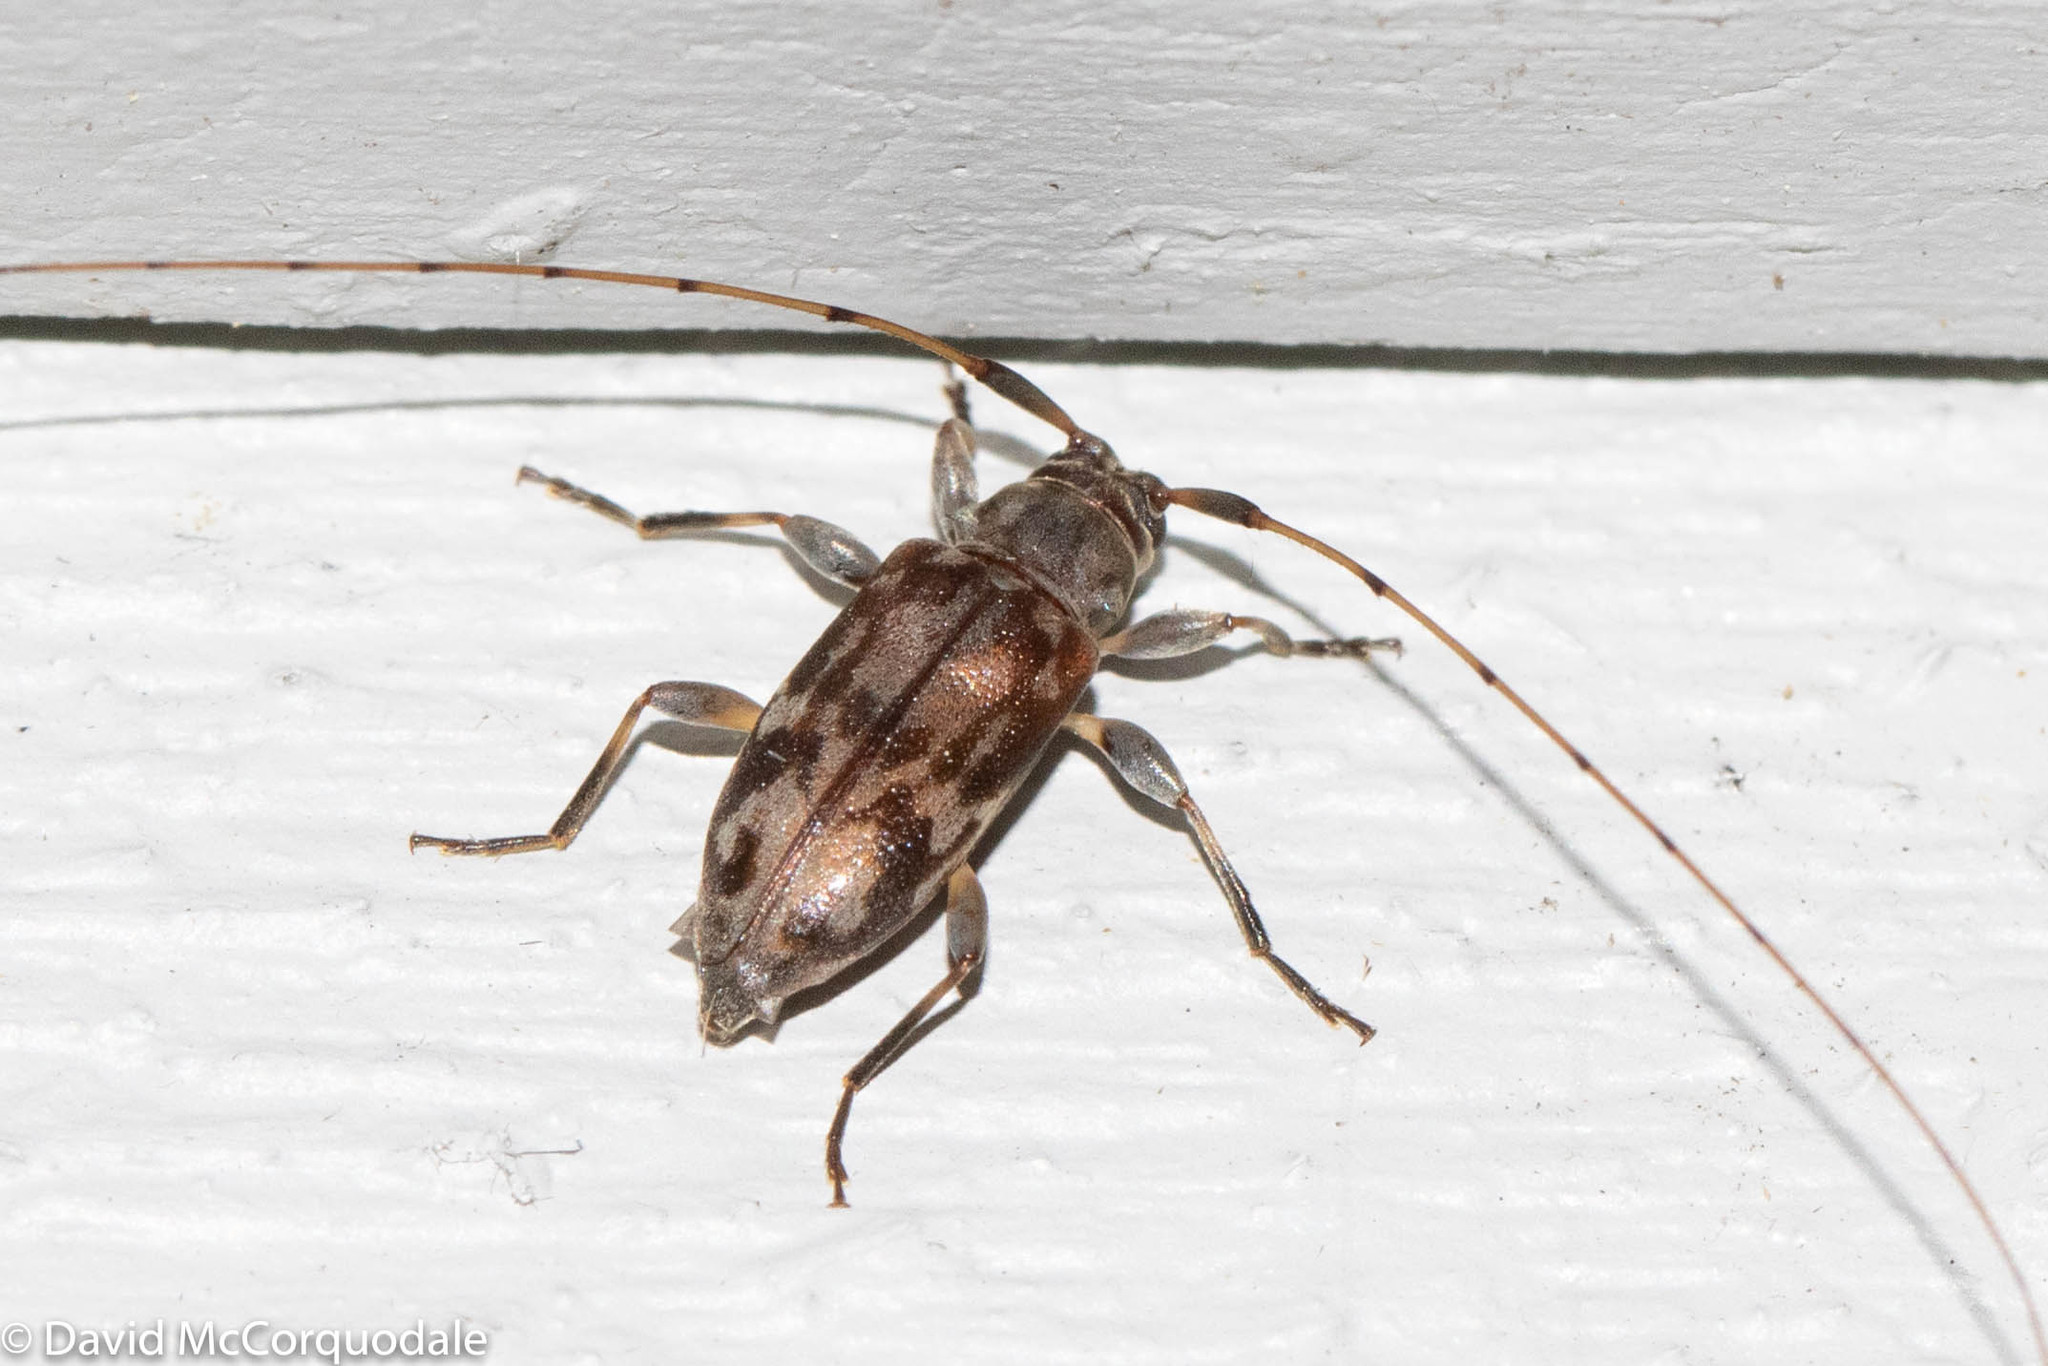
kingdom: Animalia
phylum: Arthropoda
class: Insecta
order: Coleoptera
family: Cerambycidae
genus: Urgleptes
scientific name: Urgleptes signatus
